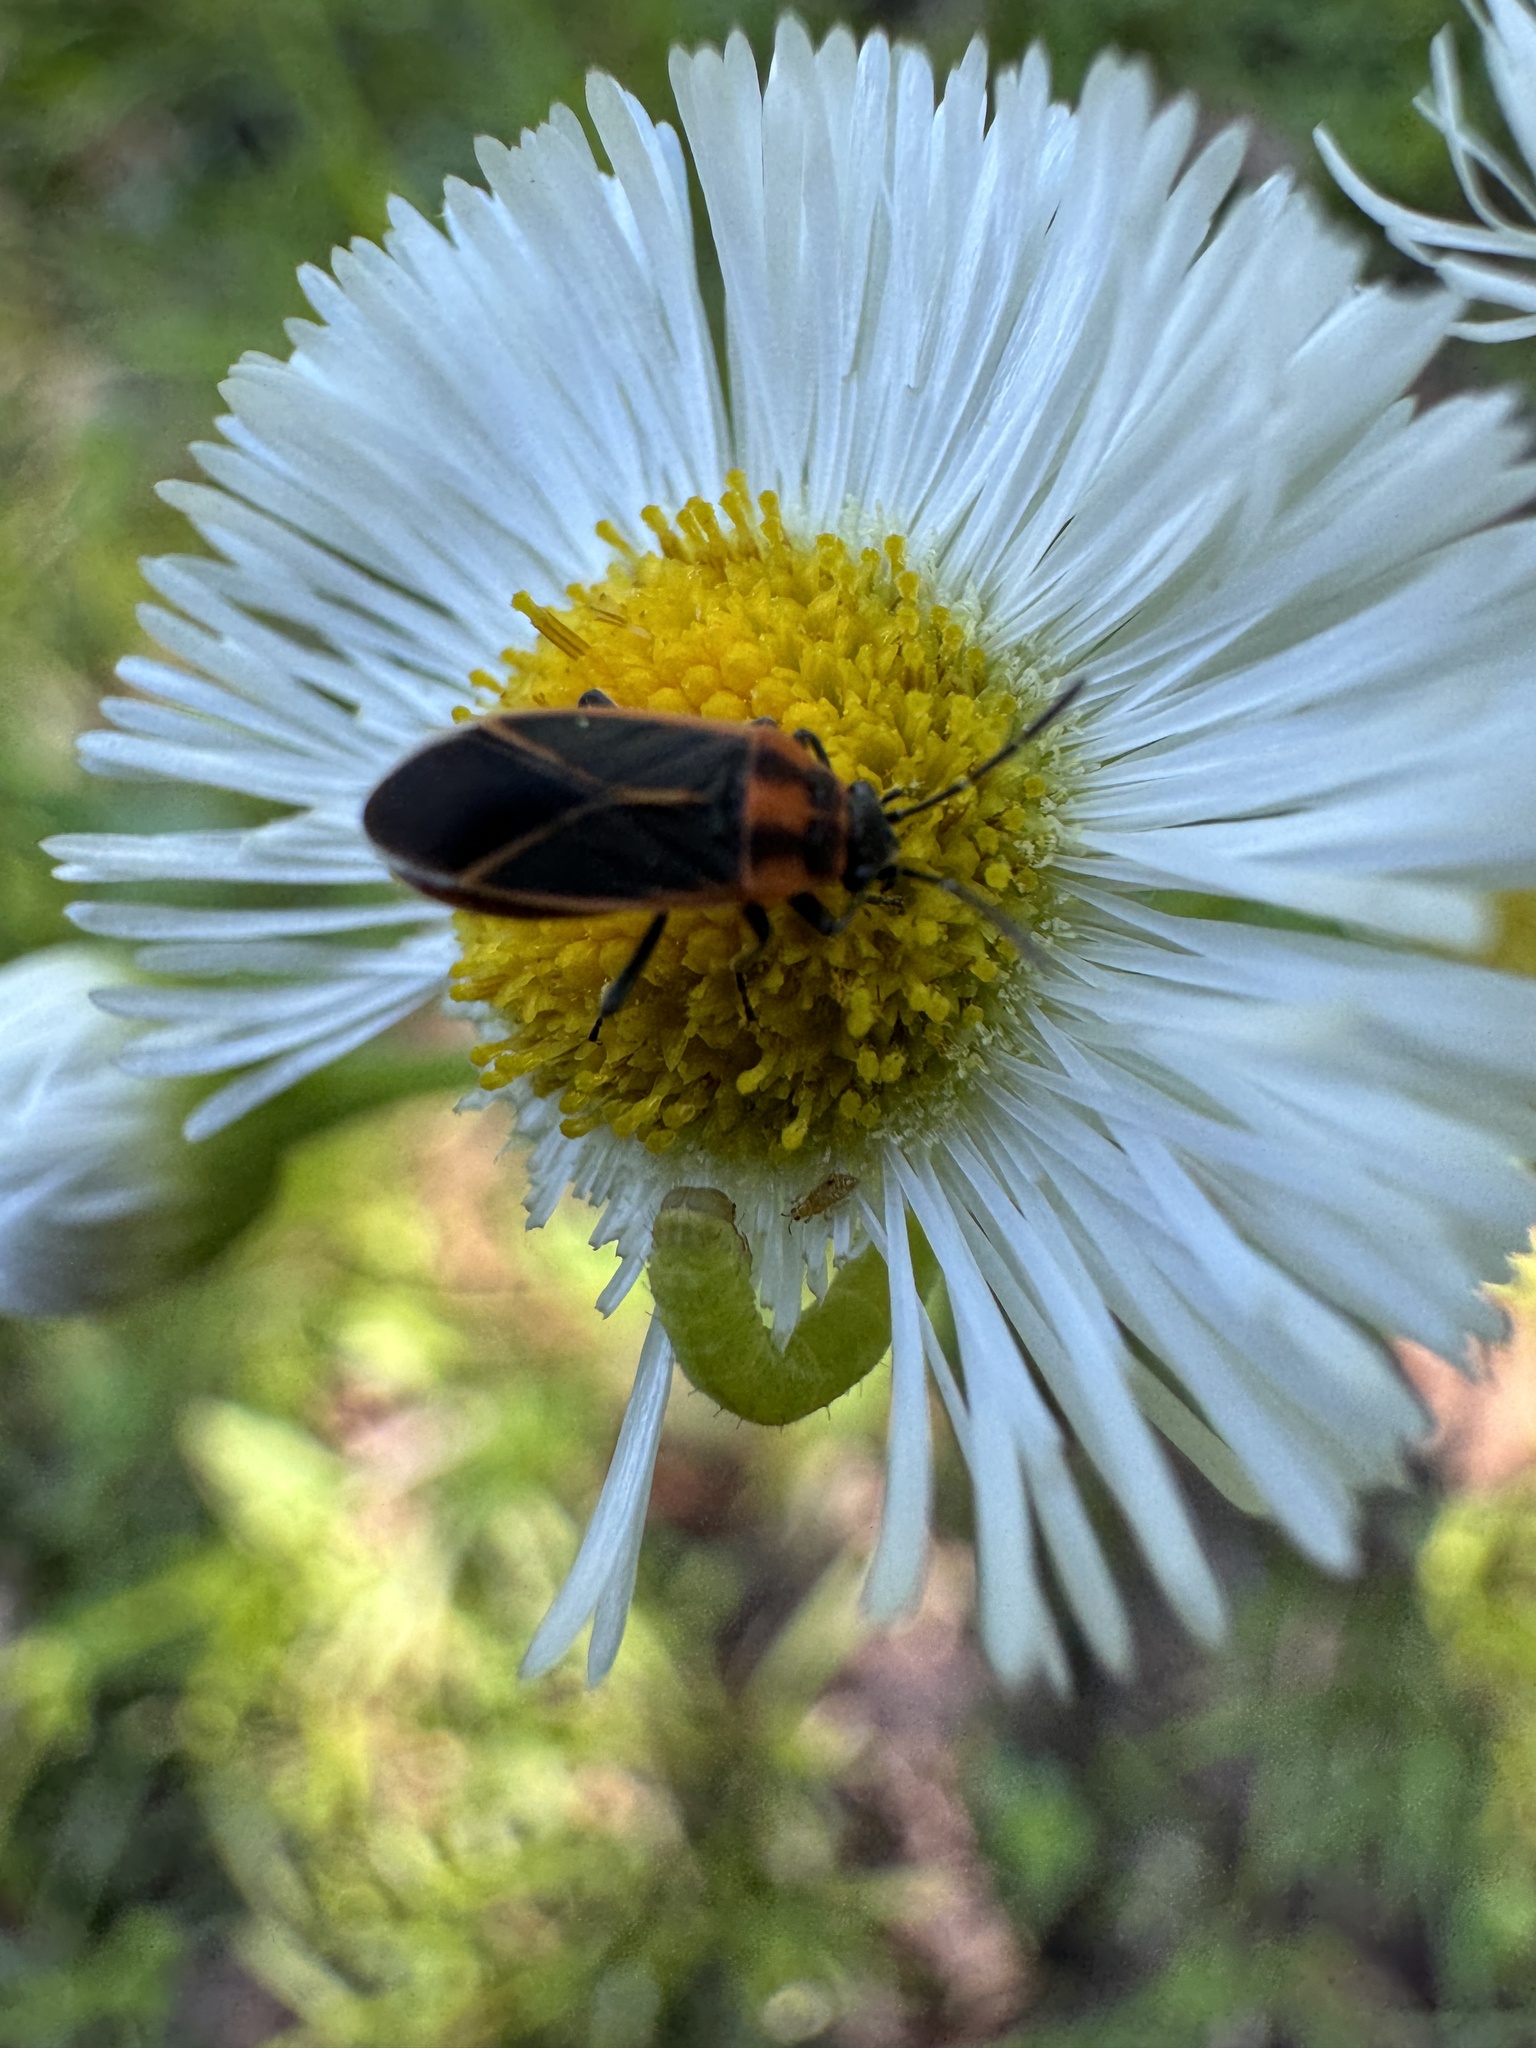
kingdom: Animalia
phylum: Arthropoda
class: Insecta
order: Hemiptera
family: Lygaeidae
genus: Ochrimnus
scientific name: Ochrimnus lineoloides
